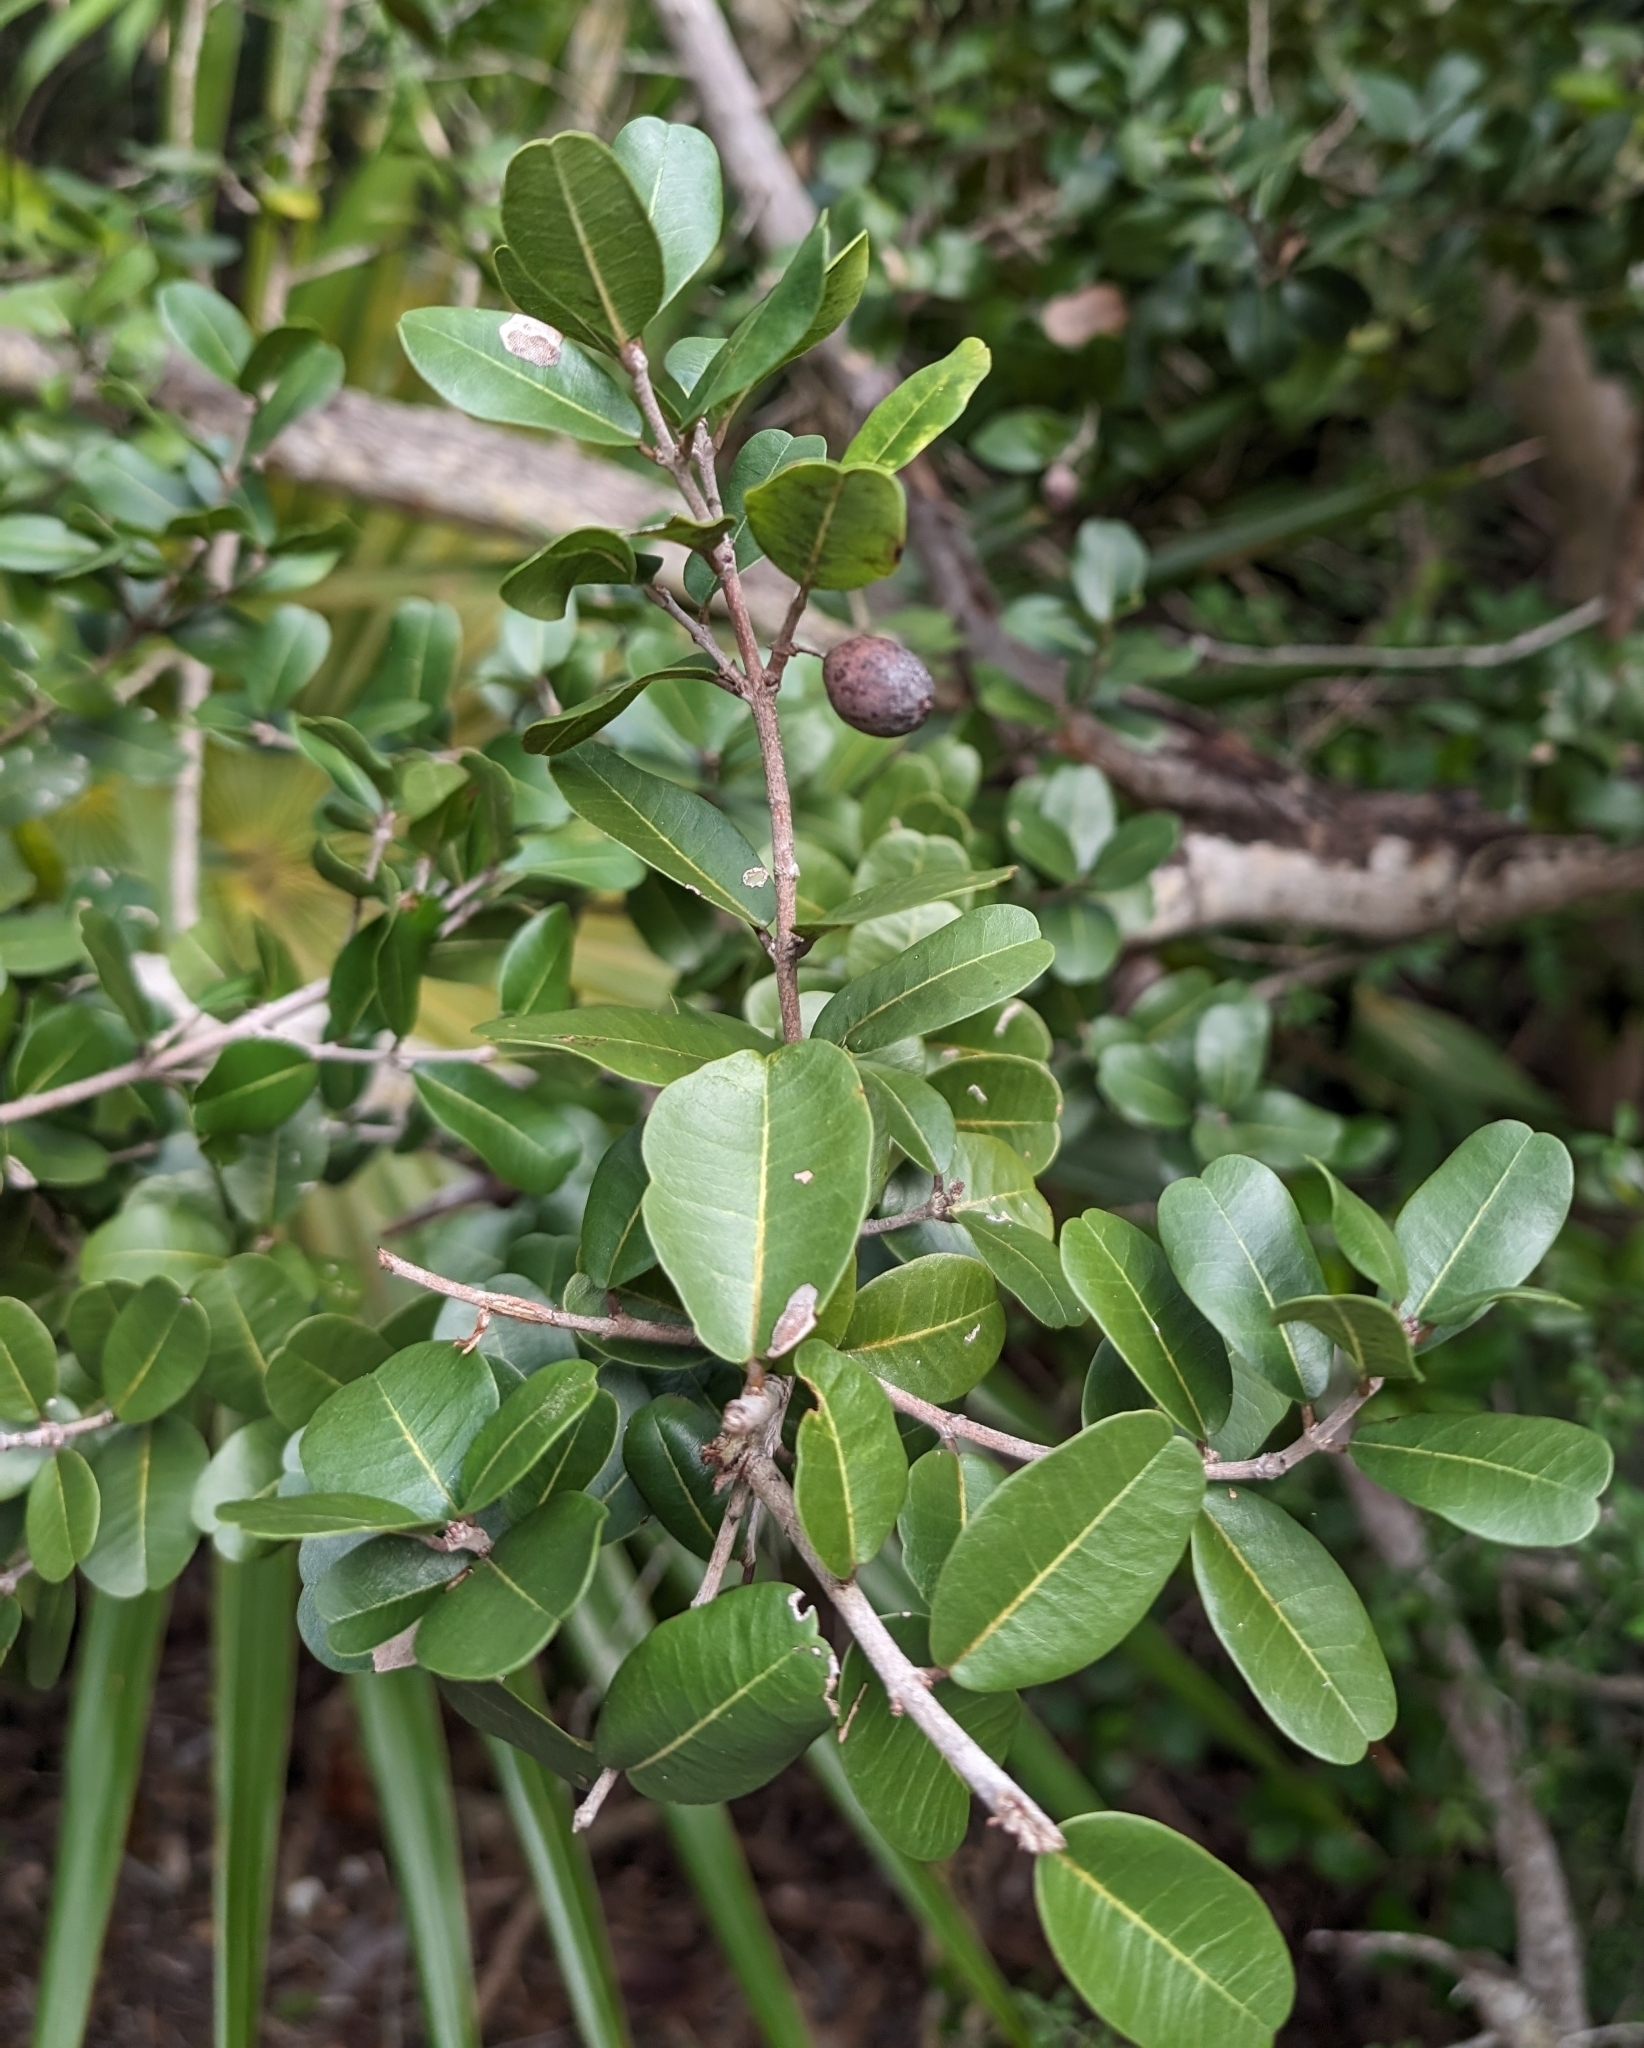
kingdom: Plantae
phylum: Tracheophyta
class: Magnoliopsida
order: Rosales
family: Rhamnaceae
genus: Reynosia
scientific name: Reynosia septentrionalis
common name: Red ironwood
